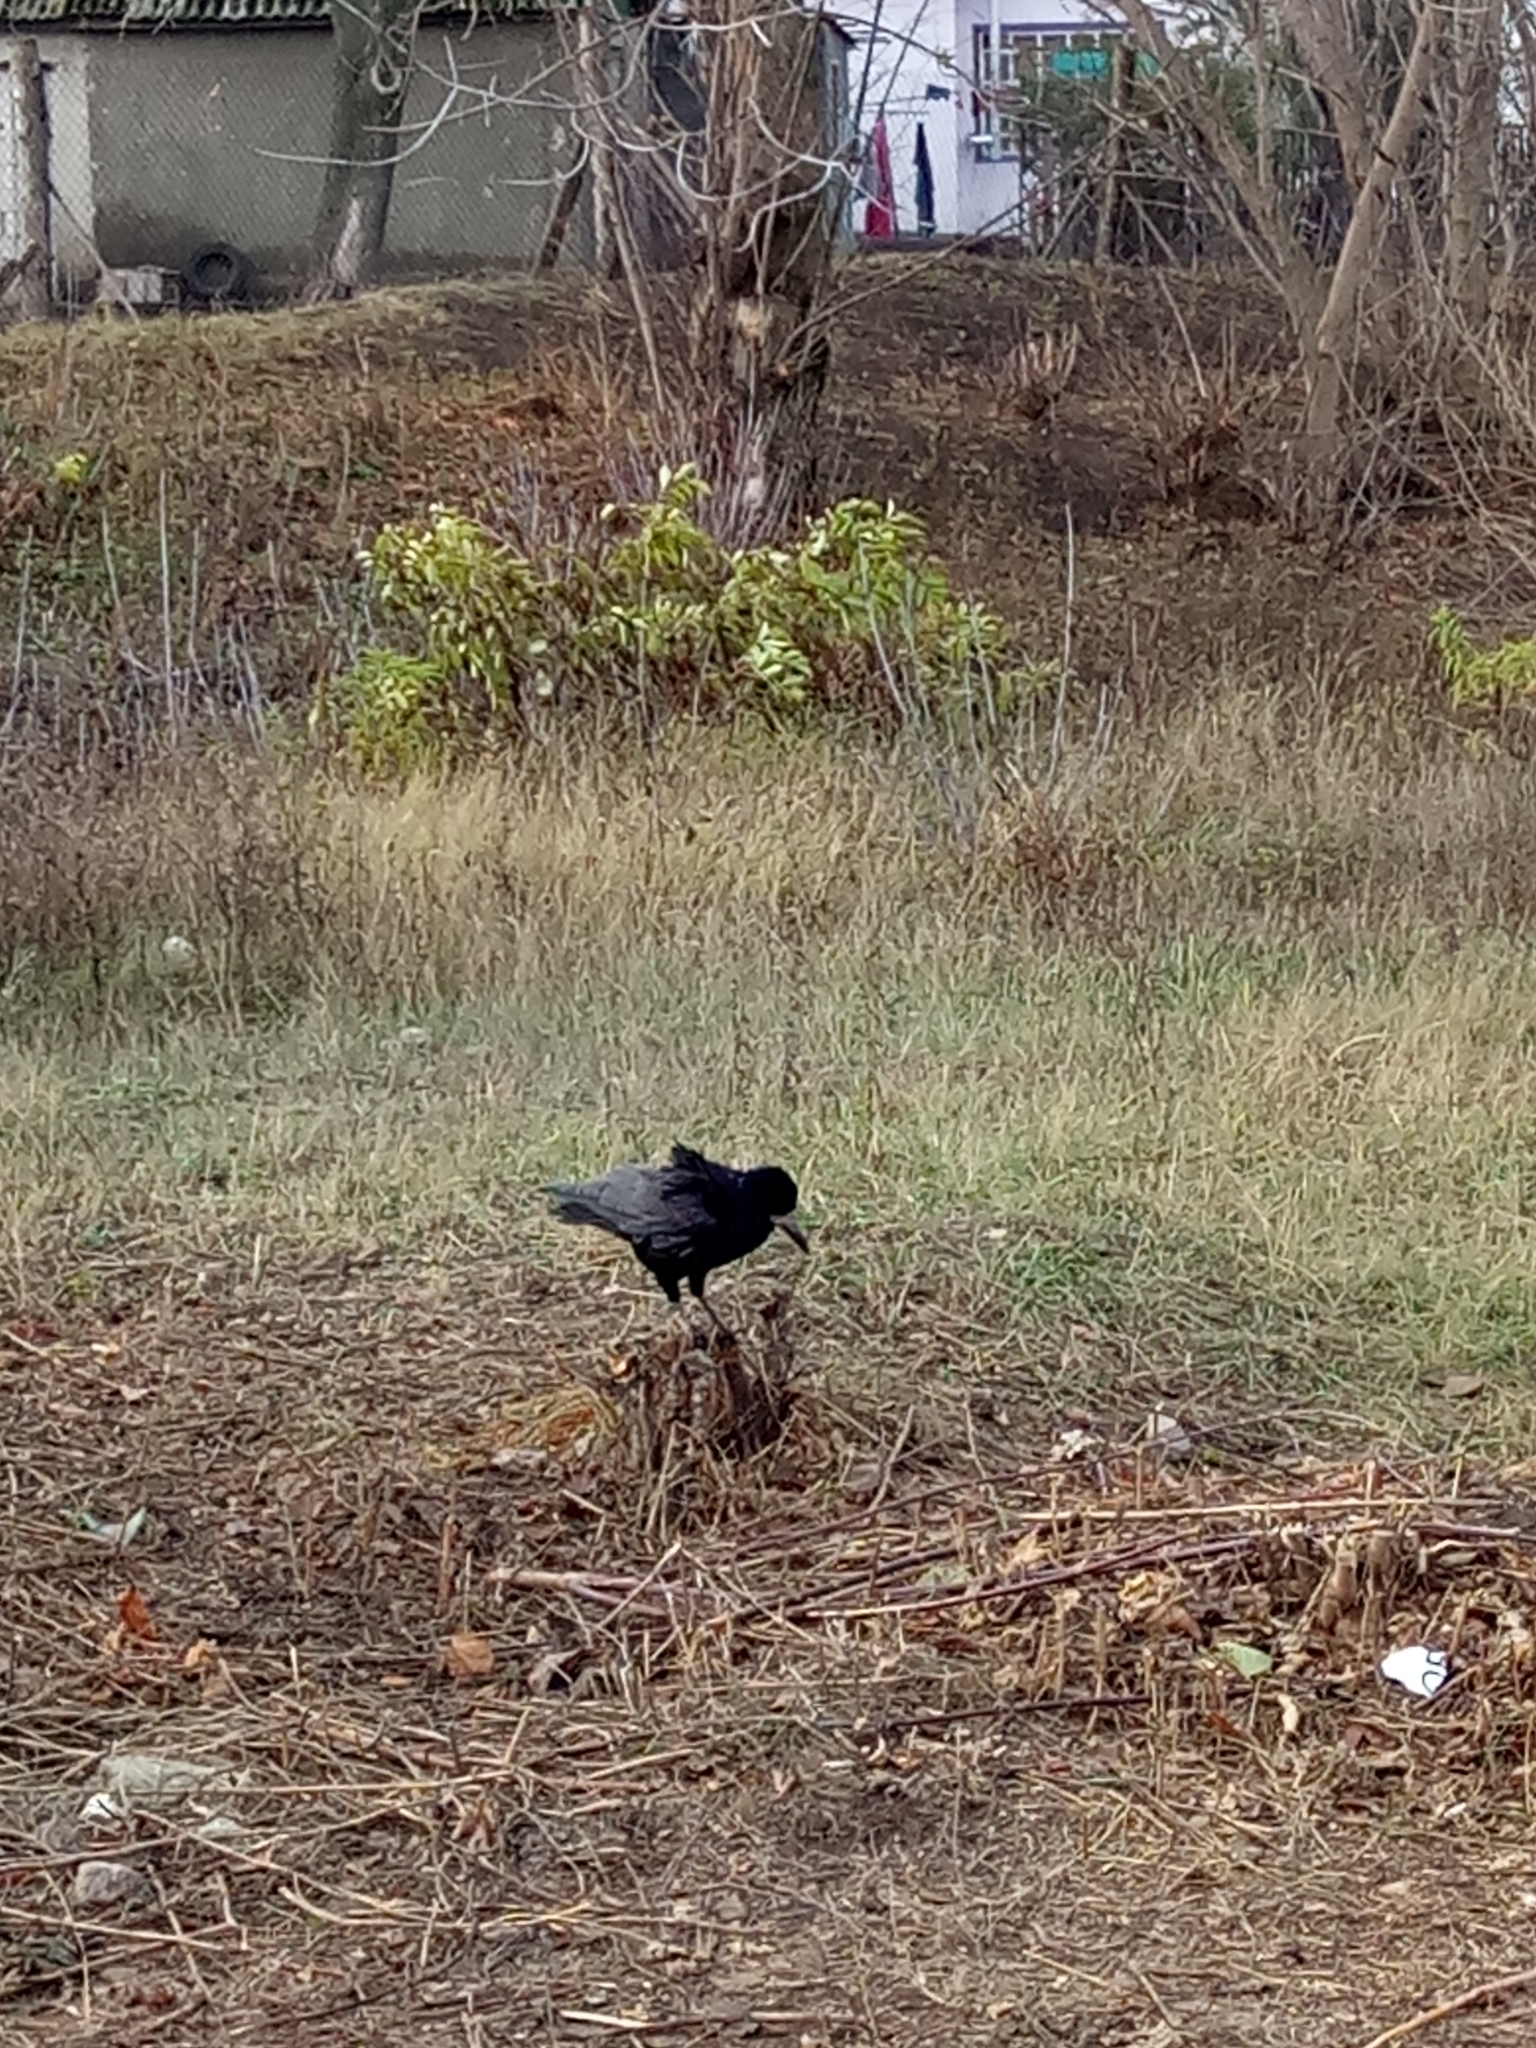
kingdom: Animalia
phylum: Chordata
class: Aves
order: Passeriformes
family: Corvidae
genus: Corvus
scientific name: Corvus frugilegus
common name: Rook
